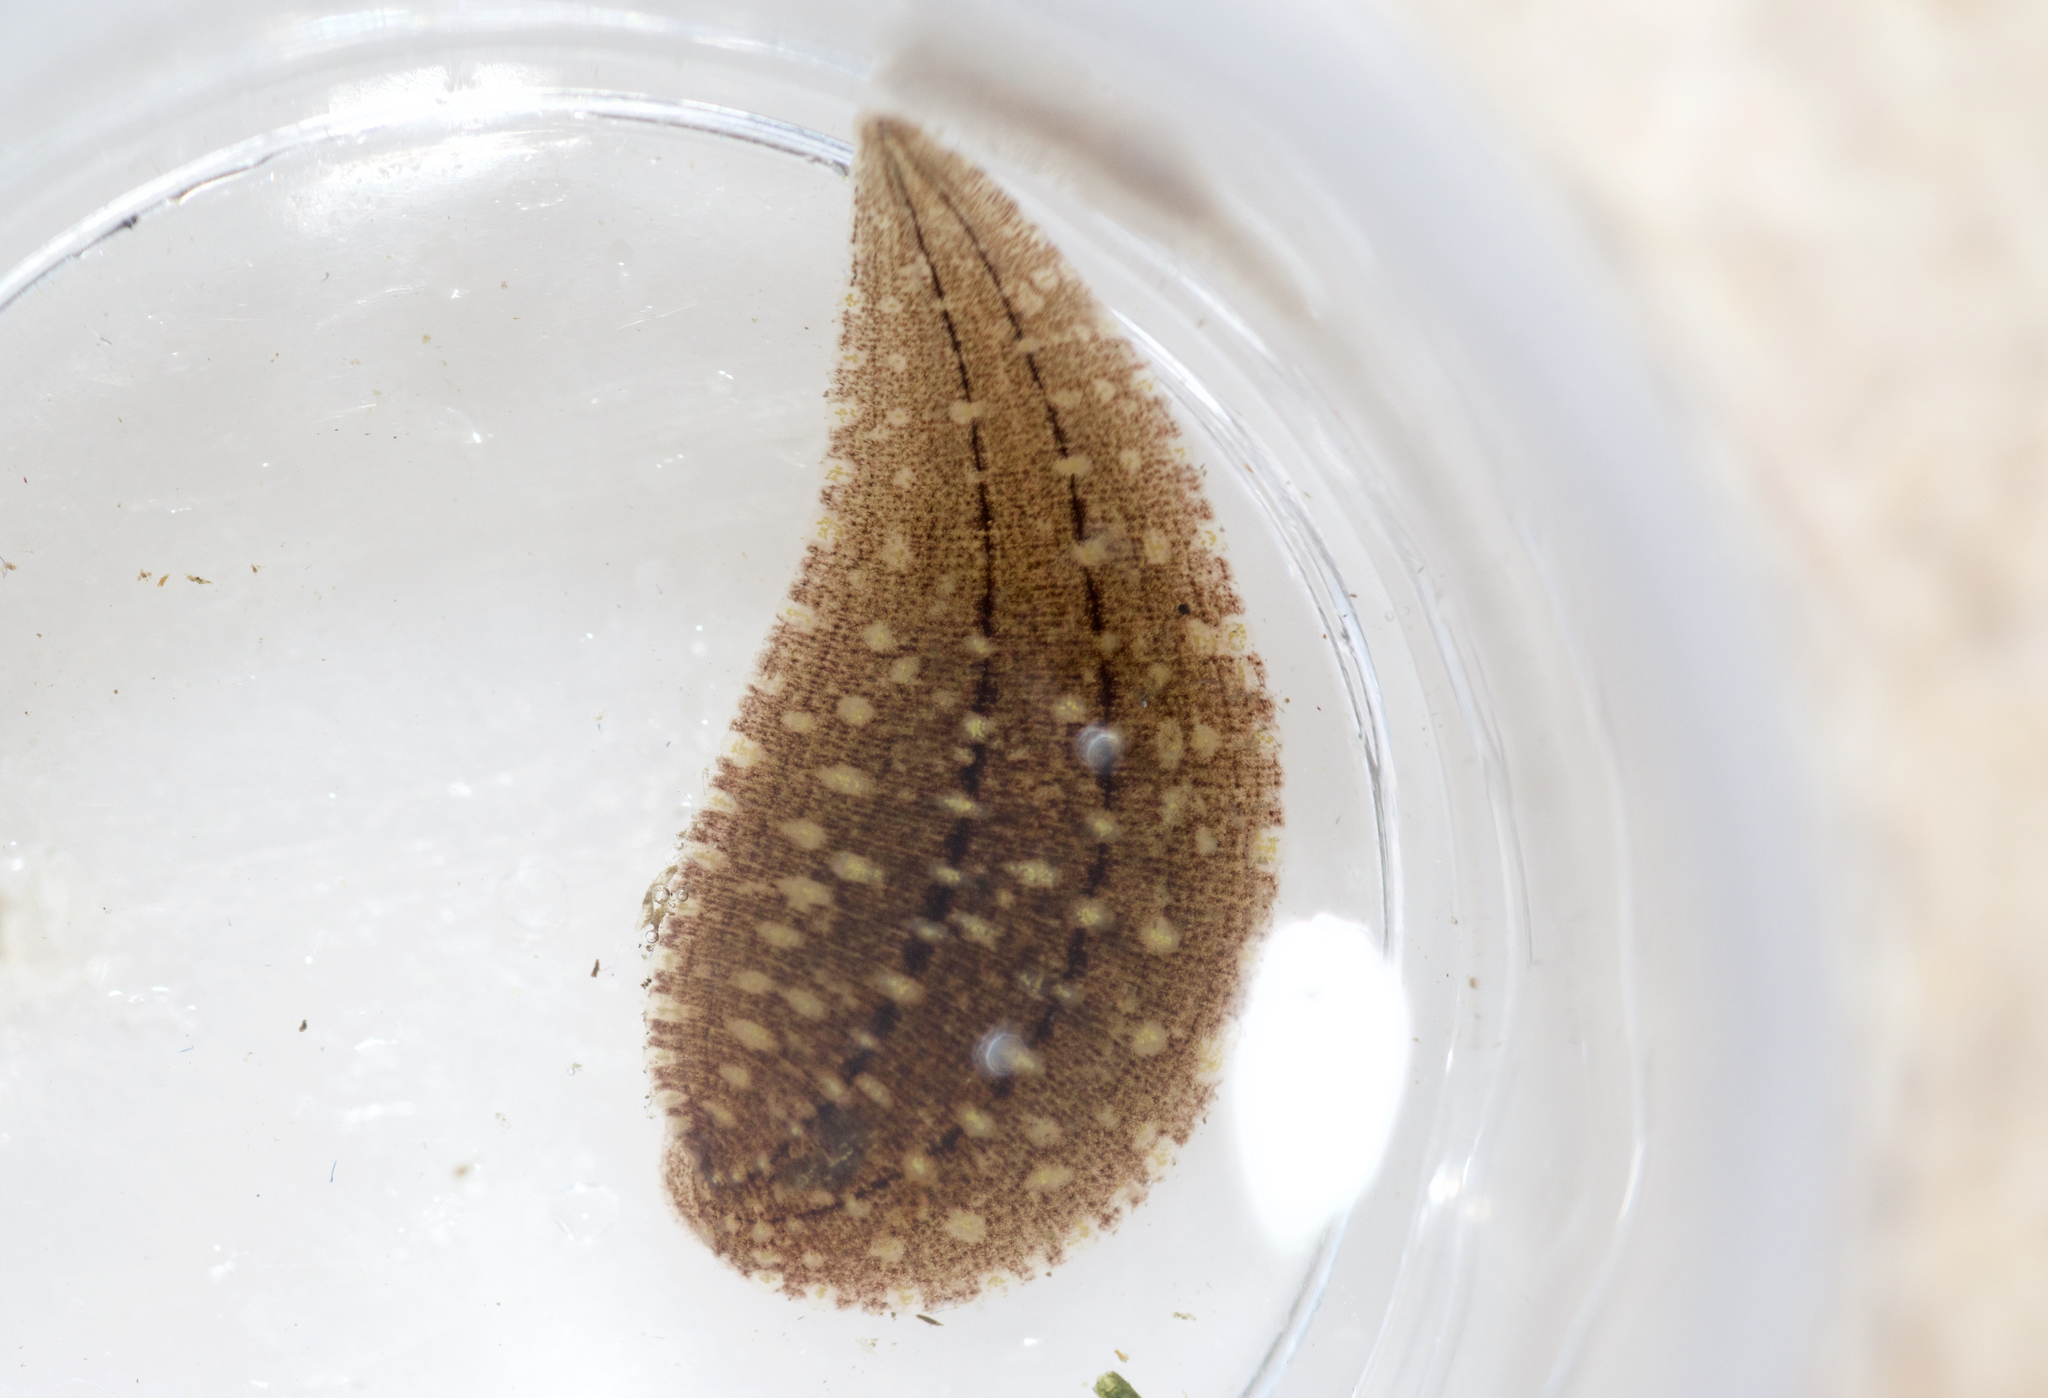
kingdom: Animalia
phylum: Annelida
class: Clitellata
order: Rhynchobdellida
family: Glossiphoniidae
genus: Clepsine
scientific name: Clepsine elegans
